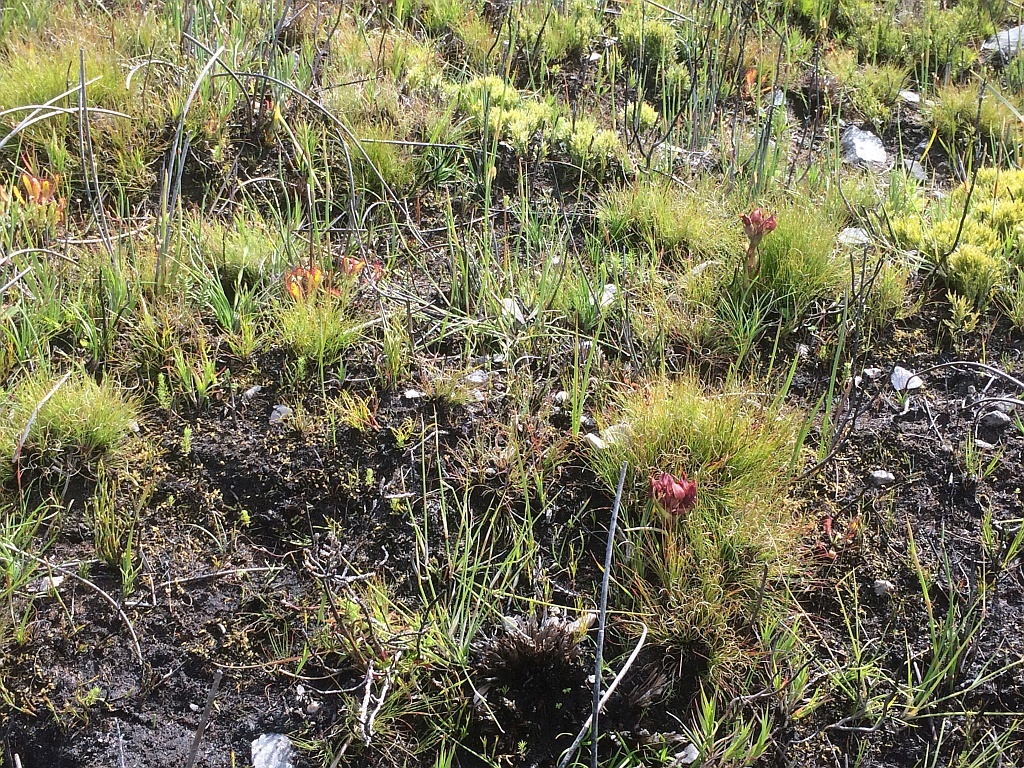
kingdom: Plantae
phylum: Tracheophyta
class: Liliopsida
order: Asparagales
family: Orchidaceae
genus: Disa
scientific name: Disa bodkinii
